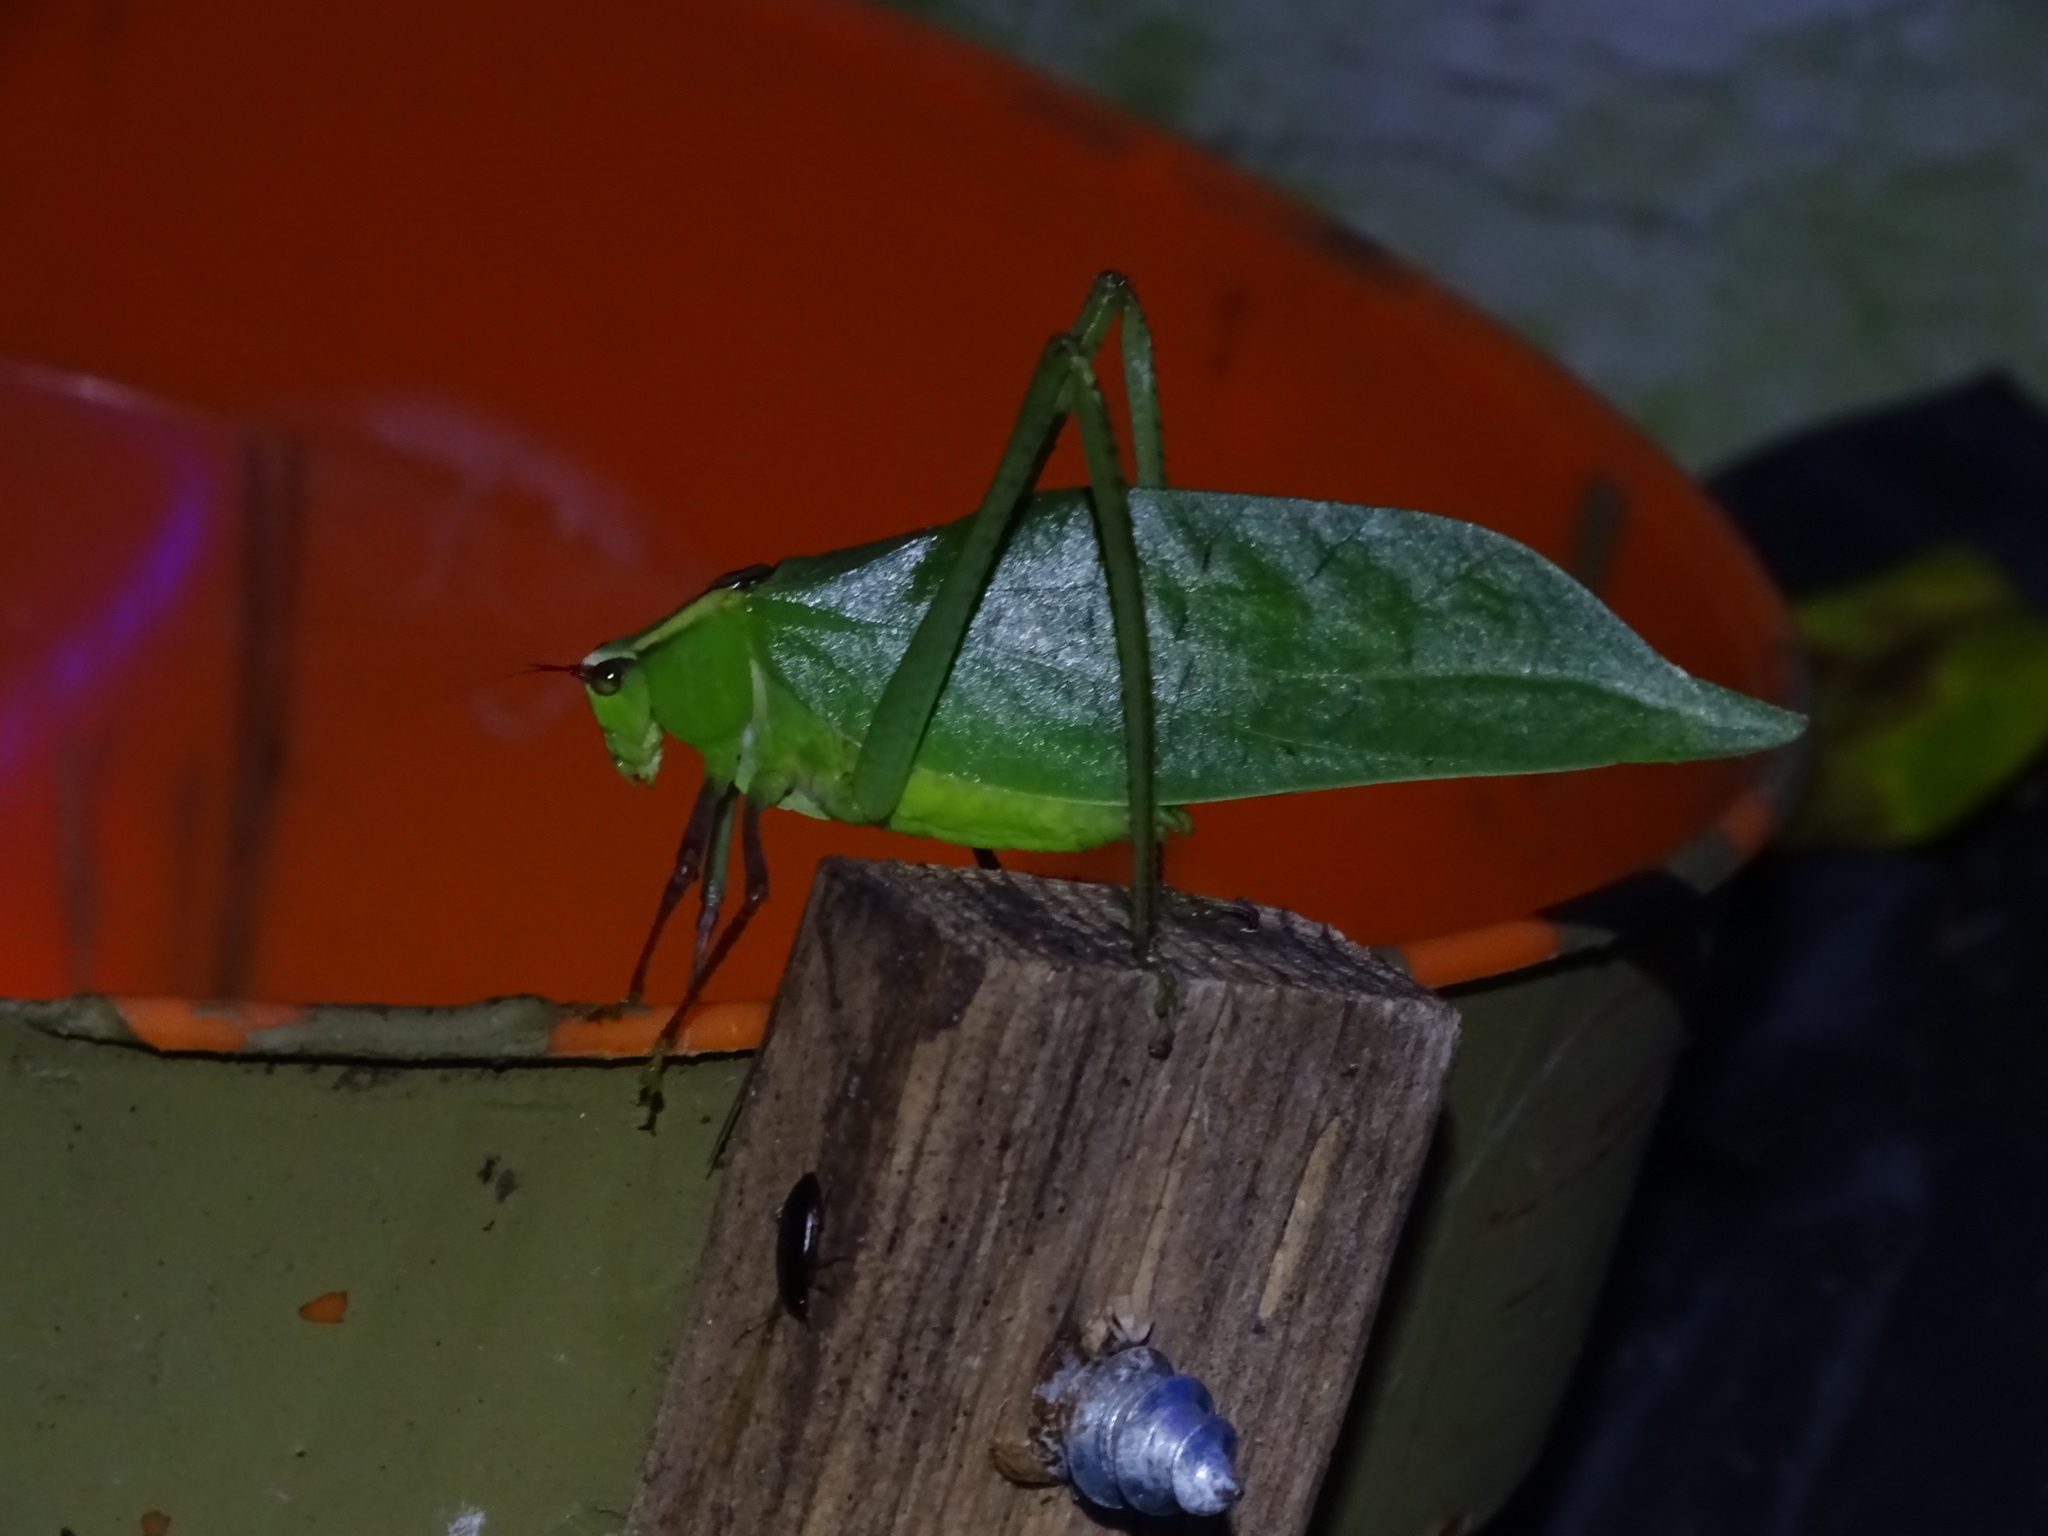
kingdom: Animalia
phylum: Arthropoda
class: Insecta
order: Orthoptera
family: Tettigoniidae
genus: Stilpnochlora
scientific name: Stilpnochlora couloniana
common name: Giant katydid
